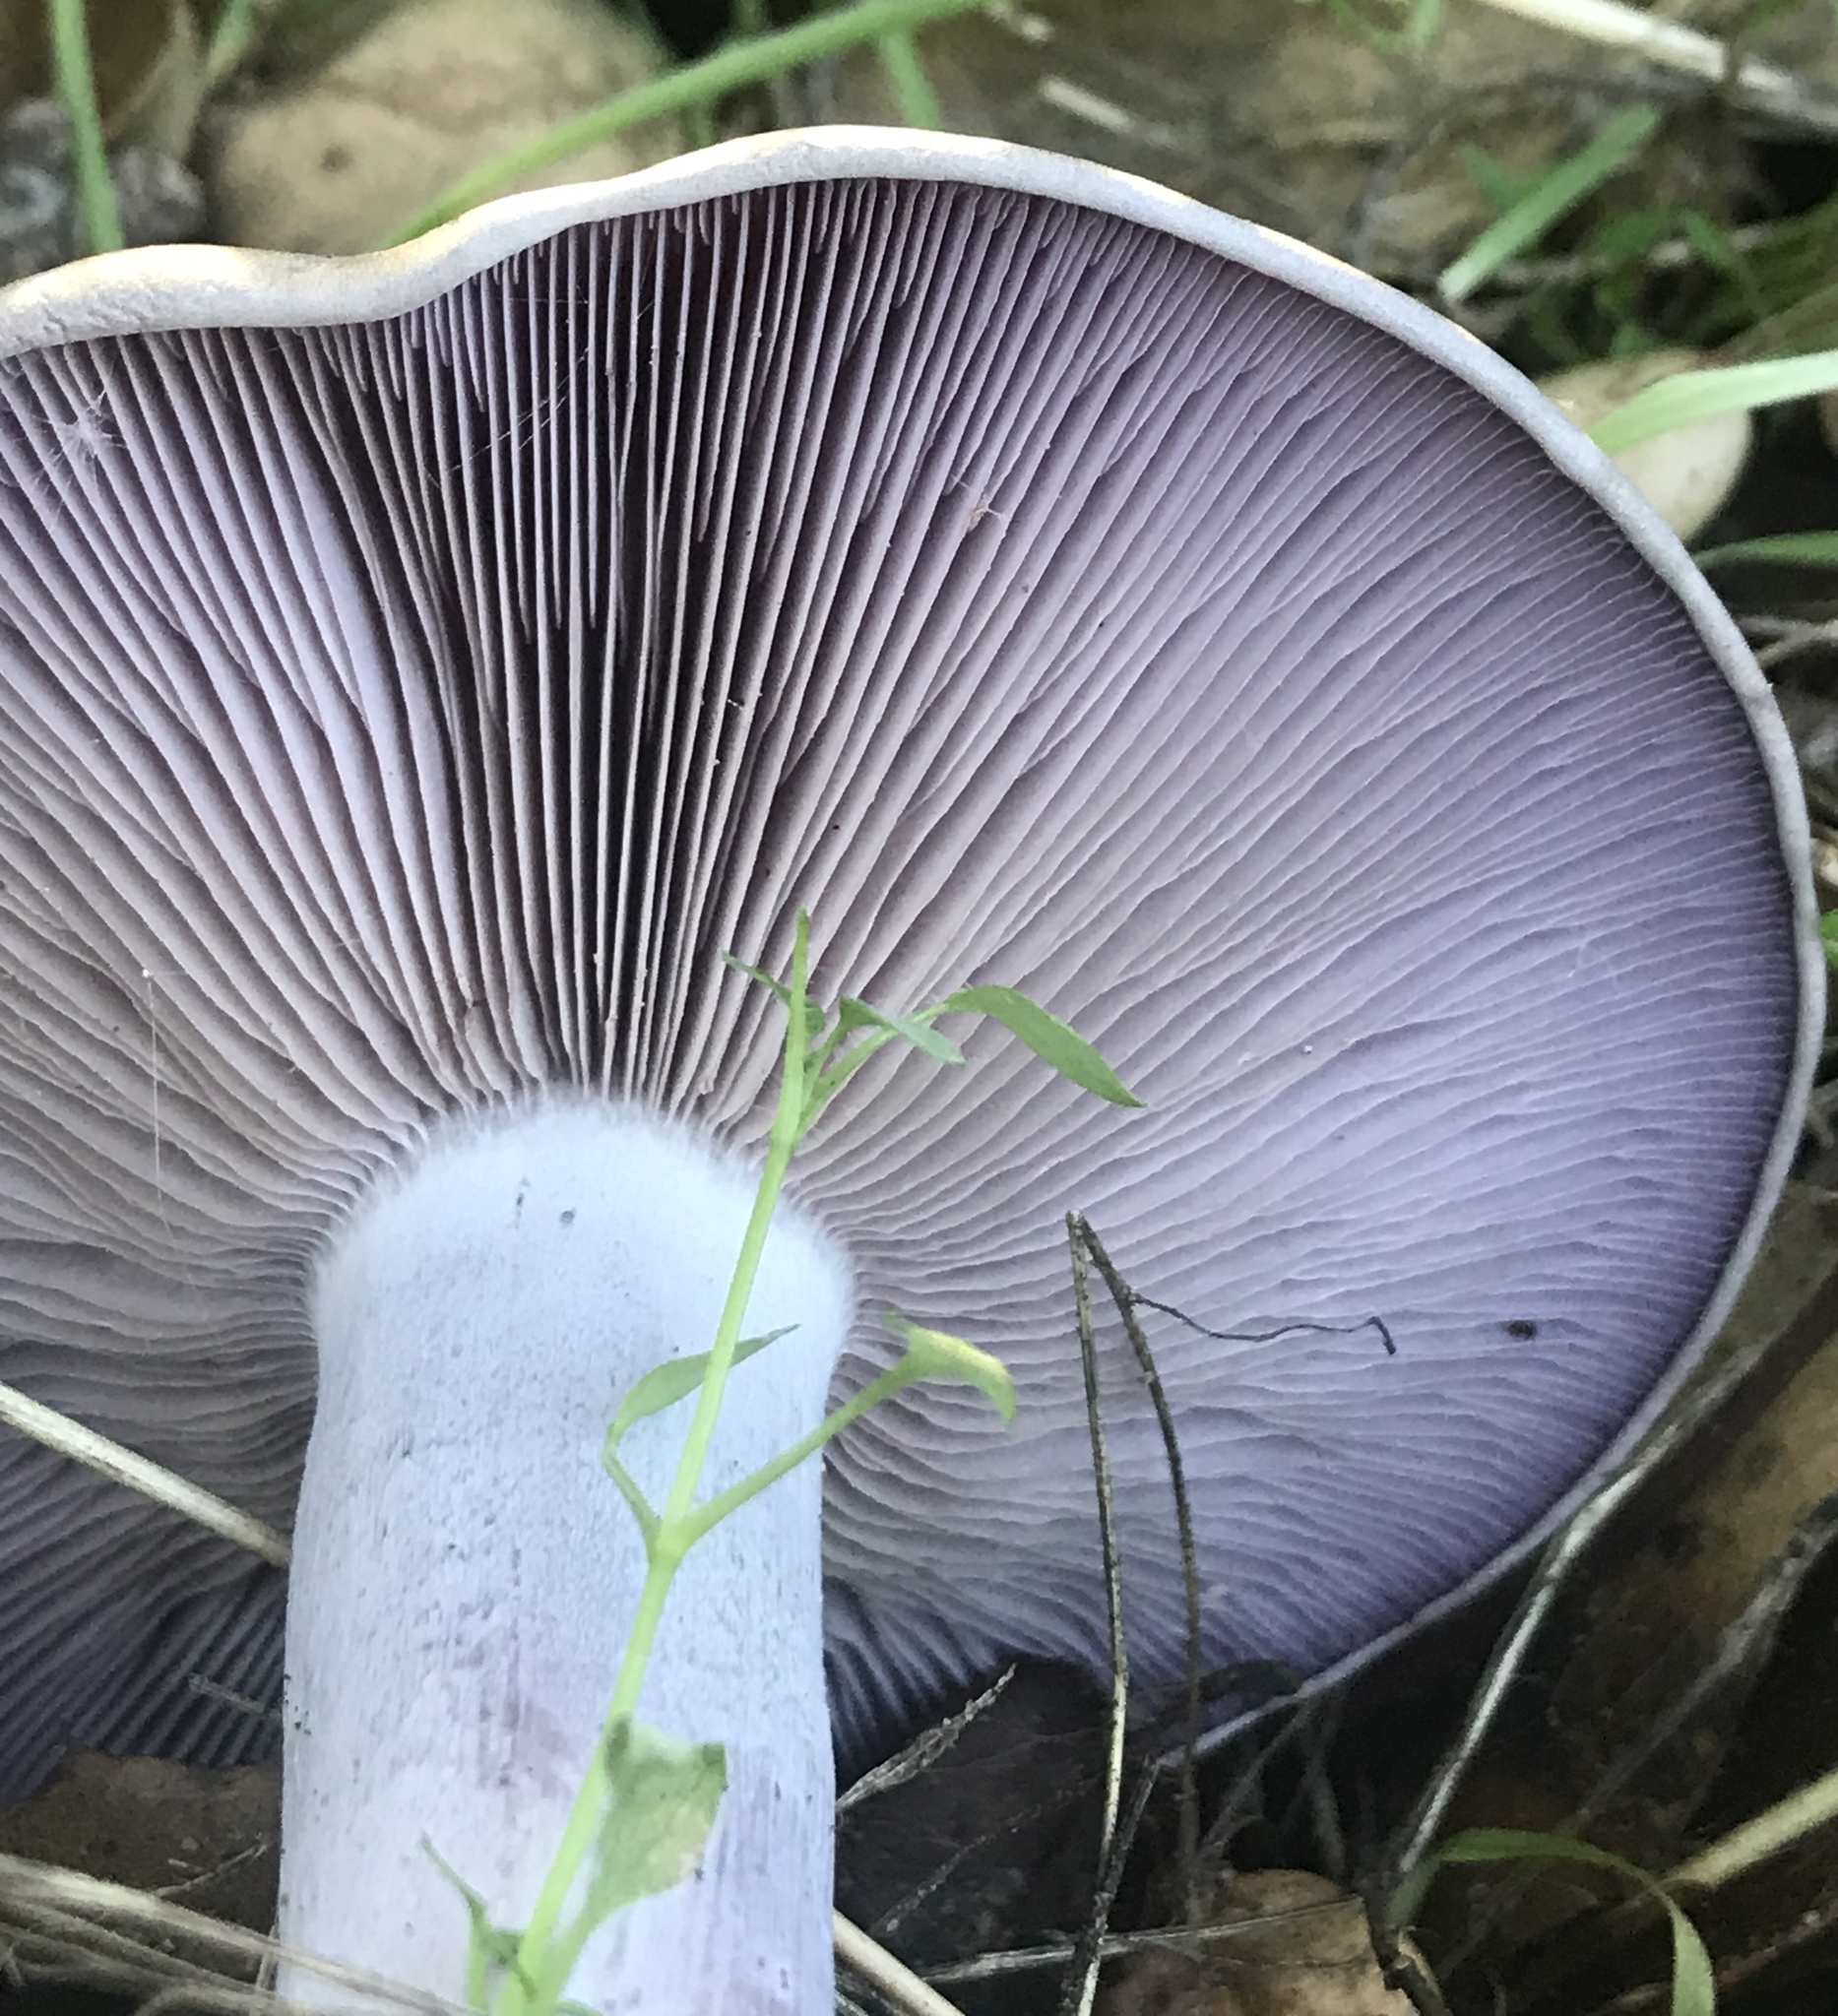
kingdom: Fungi
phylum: Basidiomycota
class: Agaricomycetes
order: Agaricales
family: Tricholomataceae
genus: Collybia
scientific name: Collybia
